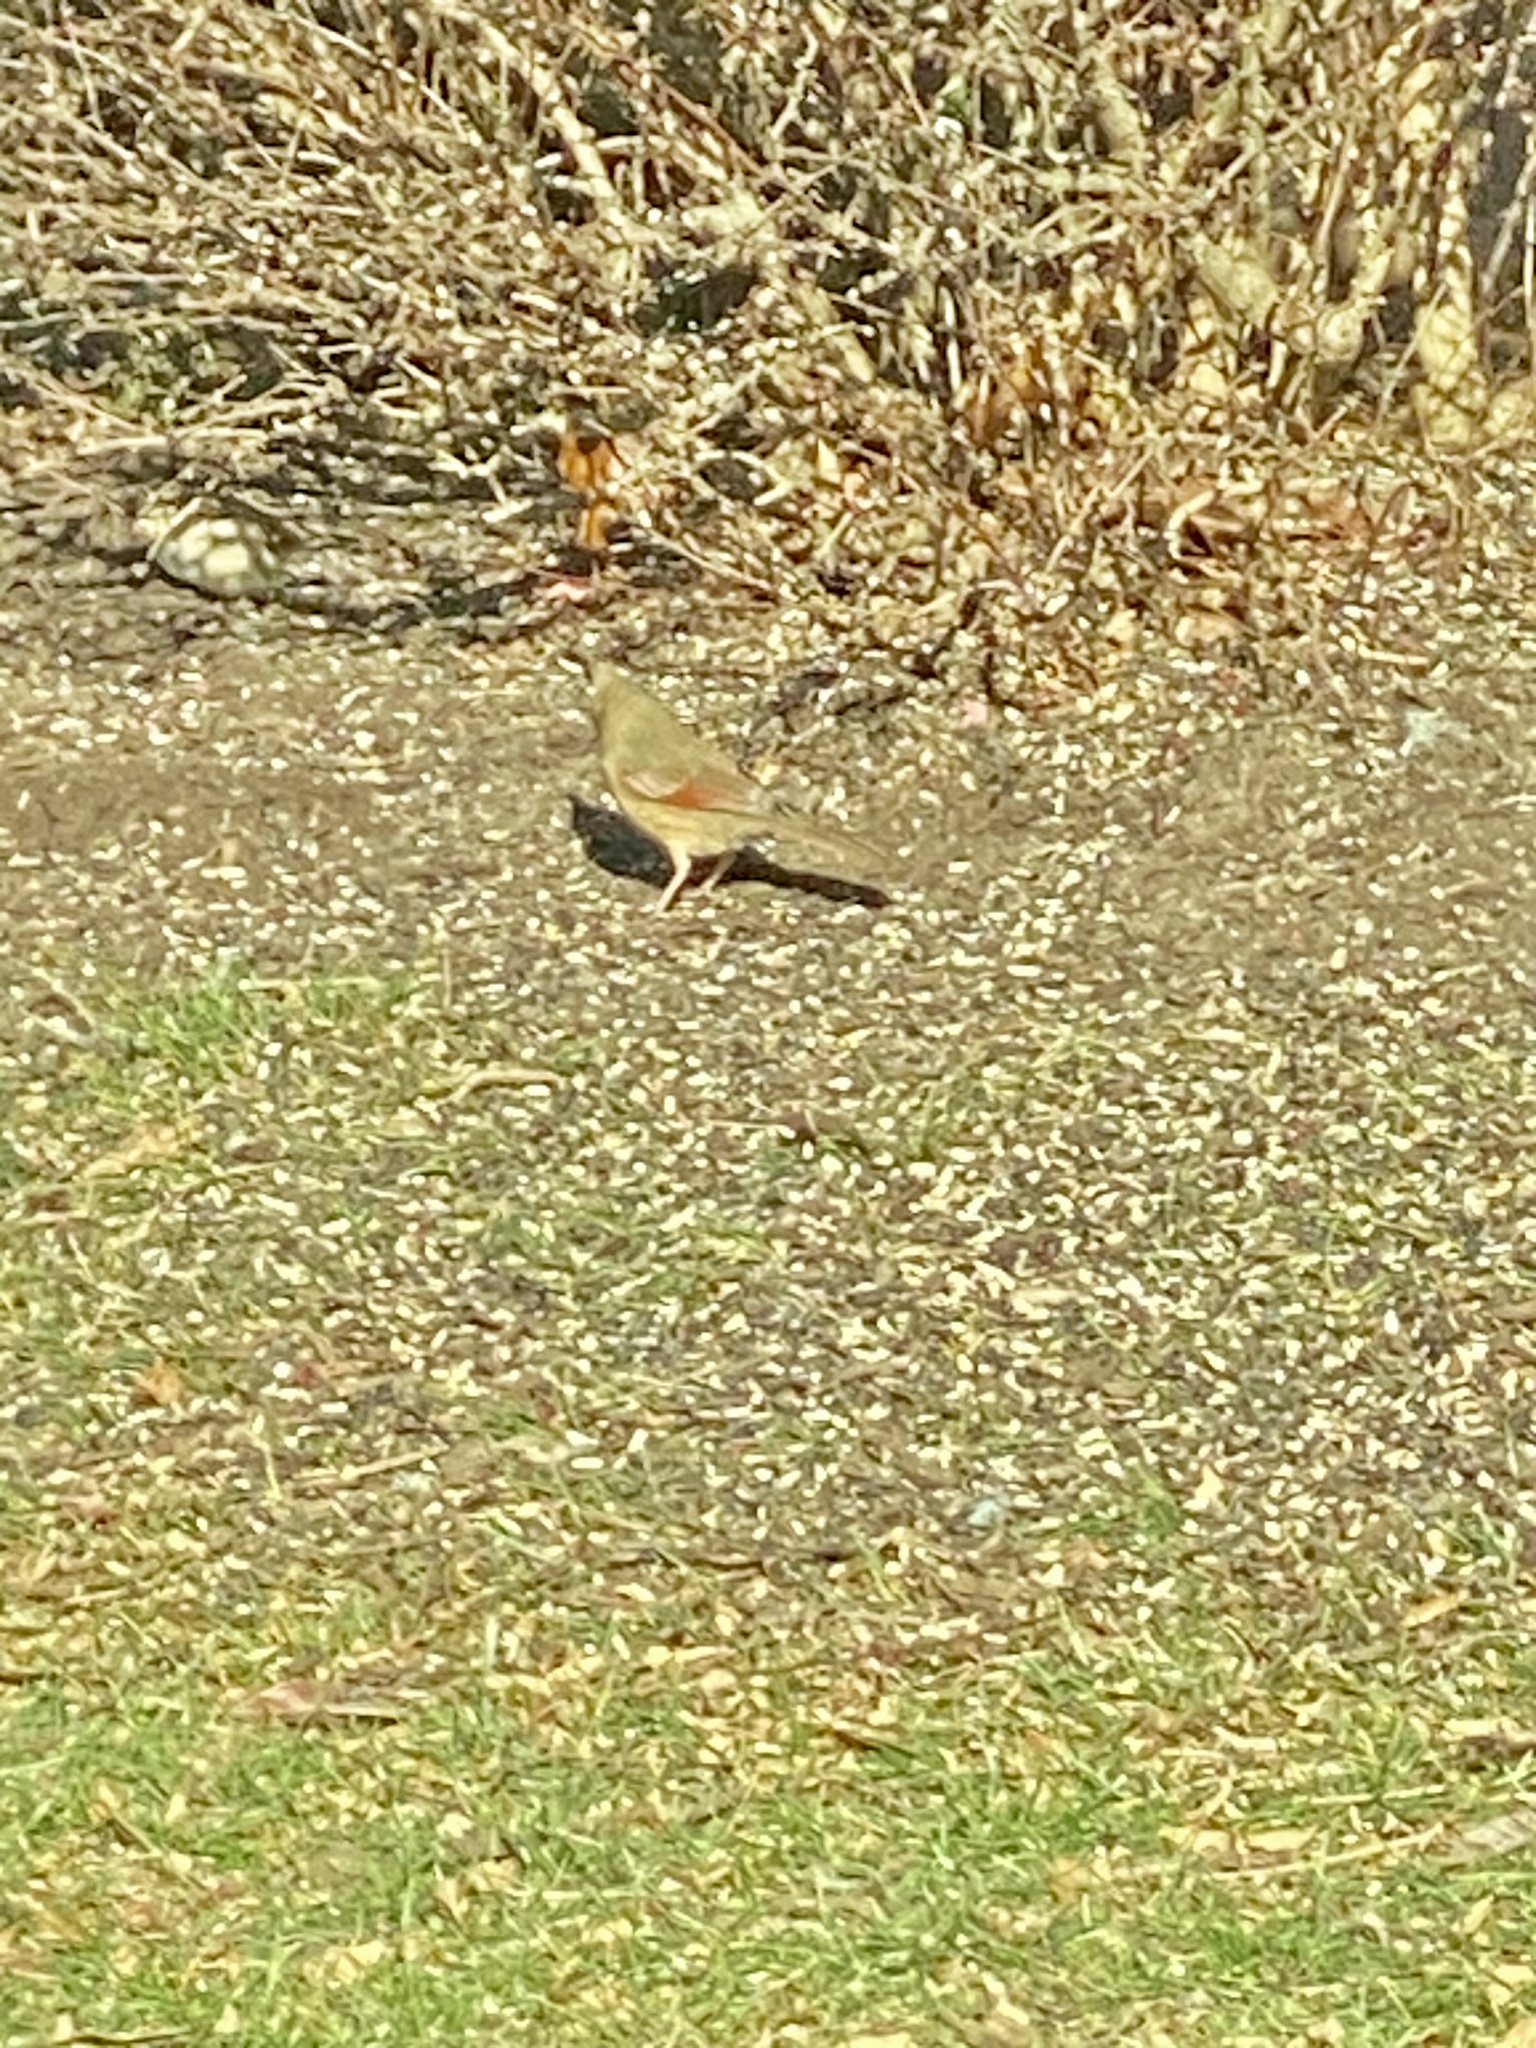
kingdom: Animalia
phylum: Chordata
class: Aves
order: Passeriformes
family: Cardinalidae
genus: Cardinalis
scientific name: Cardinalis cardinalis
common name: Northern cardinal
